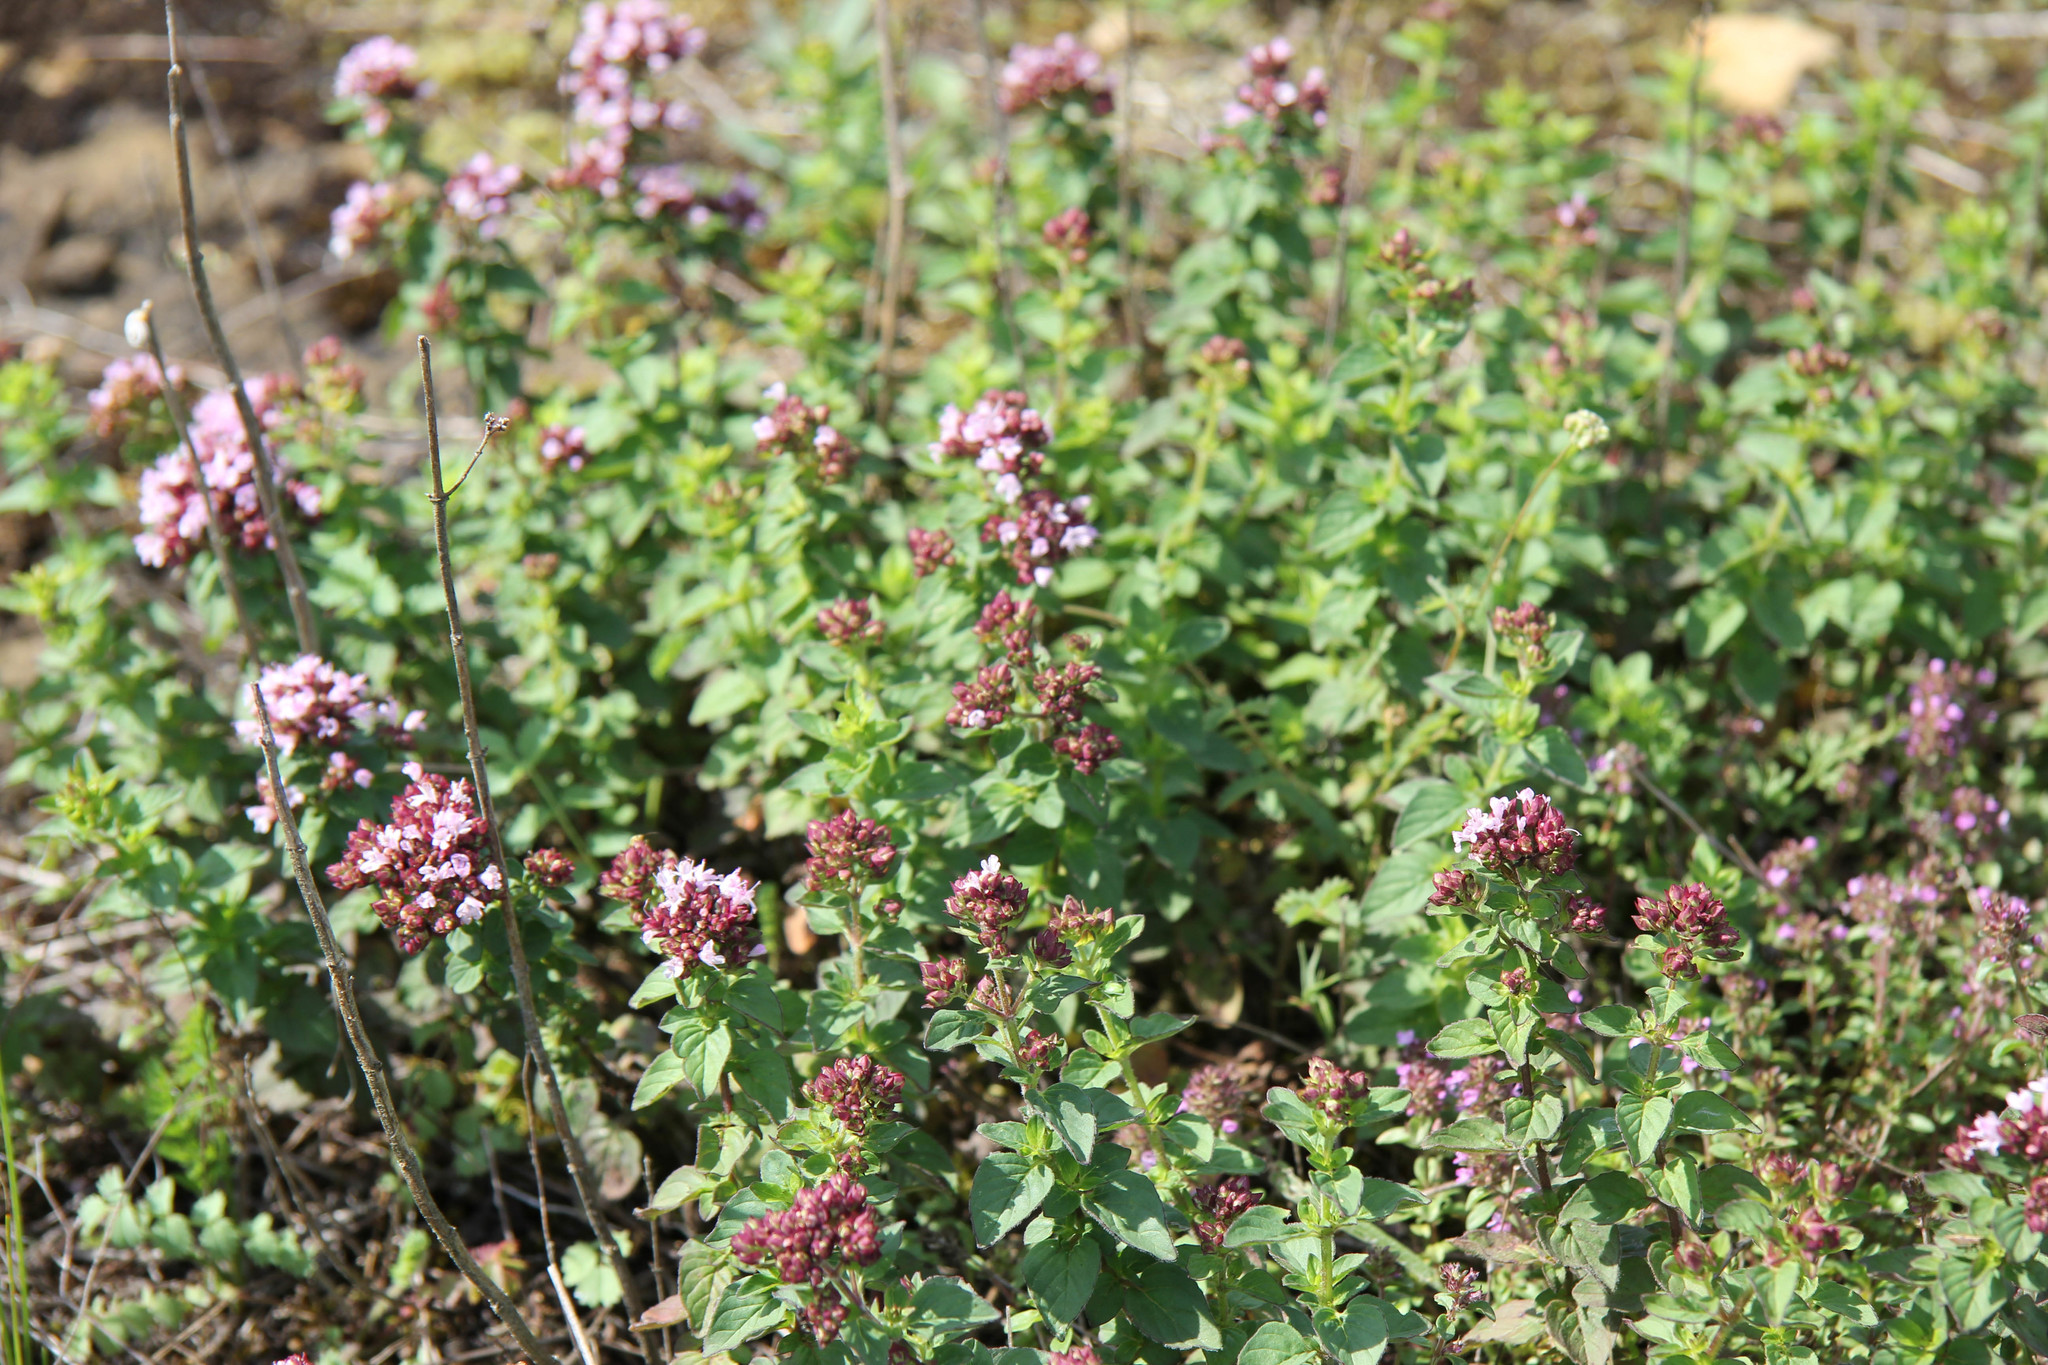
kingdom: Plantae
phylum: Tracheophyta
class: Magnoliopsida
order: Lamiales
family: Lamiaceae
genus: Origanum
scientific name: Origanum vulgare
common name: Wild marjoram
